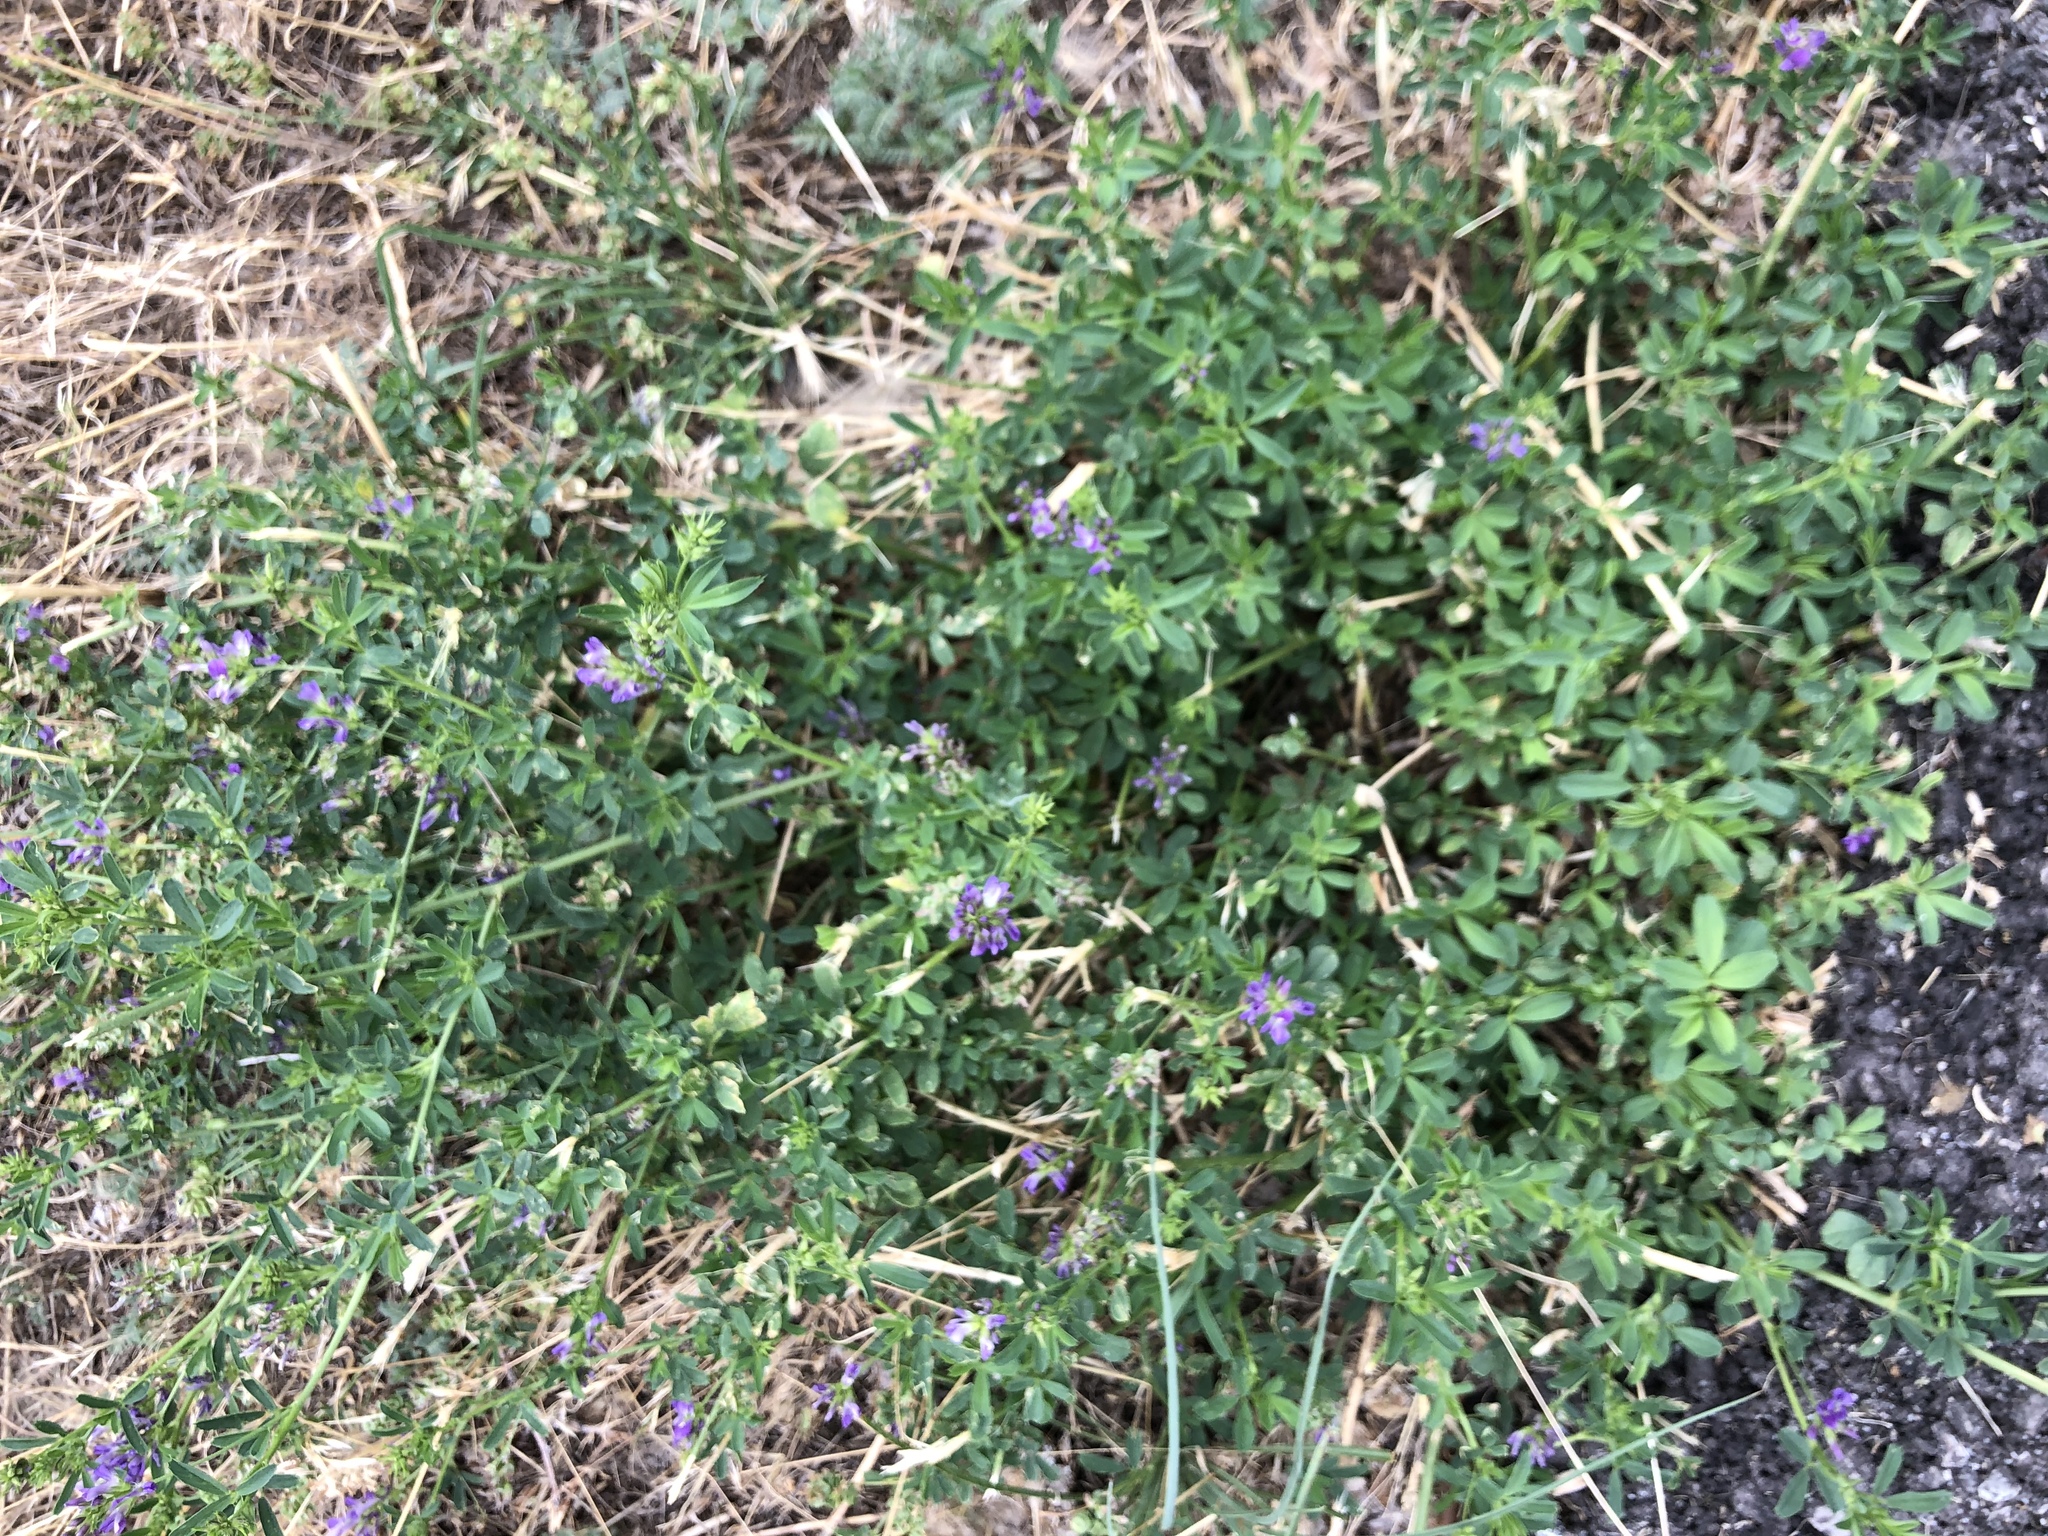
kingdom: Plantae
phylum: Tracheophyta
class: Magnoliopsida
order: Fabales
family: Fabaceae
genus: Medicago
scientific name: Medicago sativa
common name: Alfalfa
